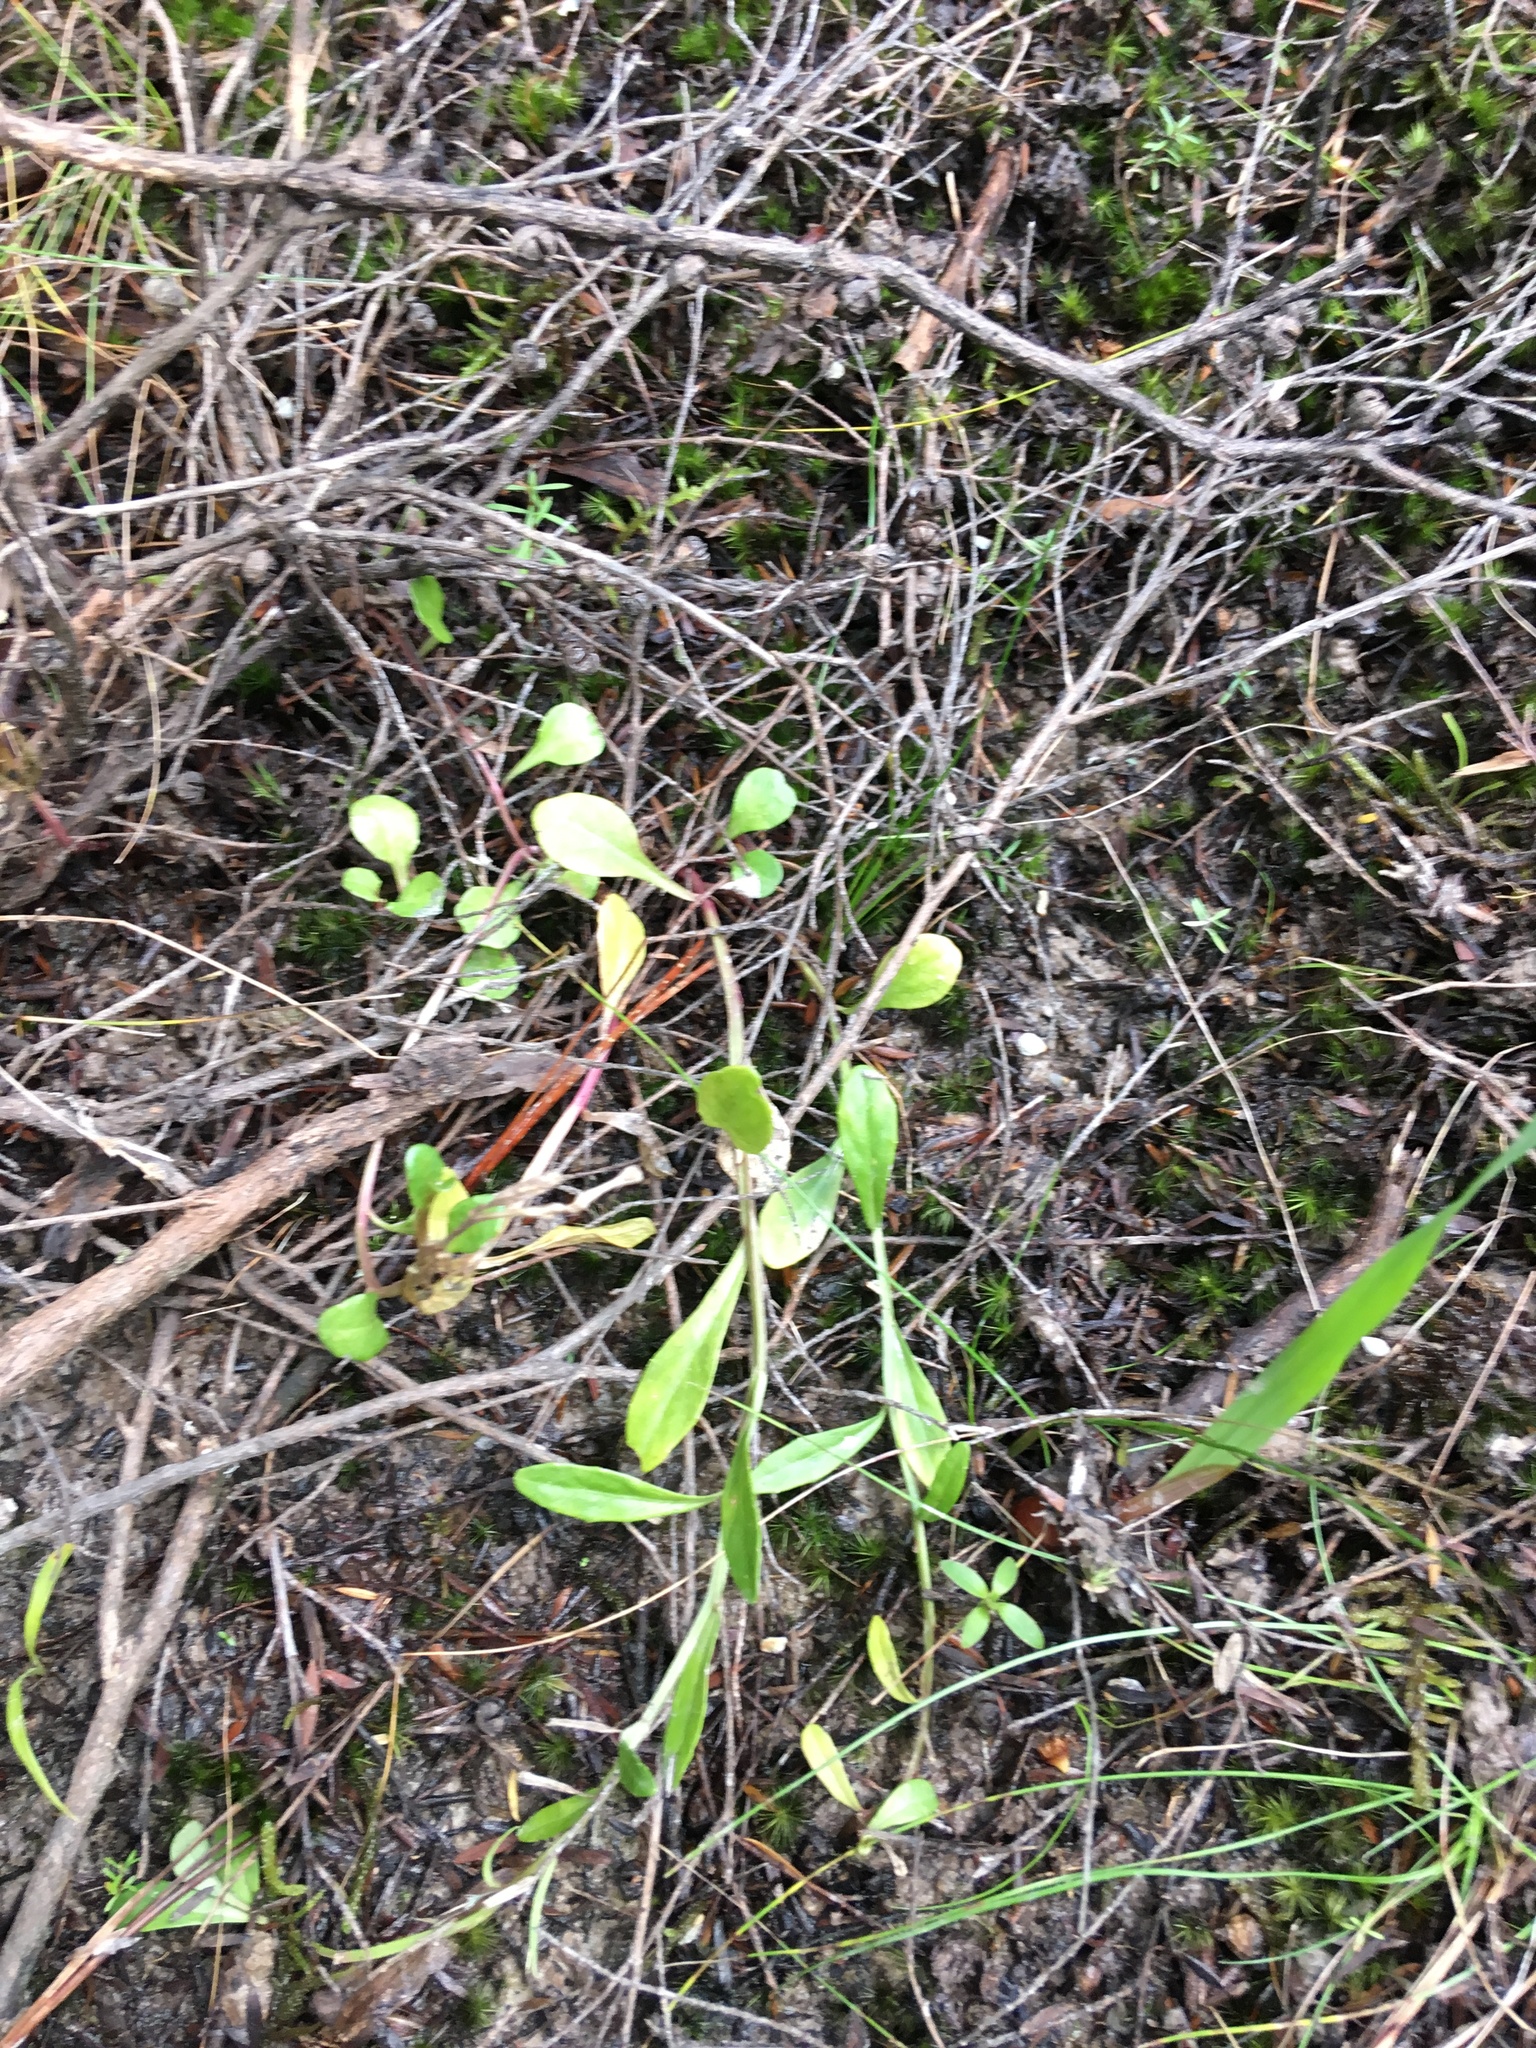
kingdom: Plantae
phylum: Tracheophyta
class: Magnoliopsida
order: Asterales
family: Campanulaceae
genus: Lobelia
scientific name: Lobelia anceps
